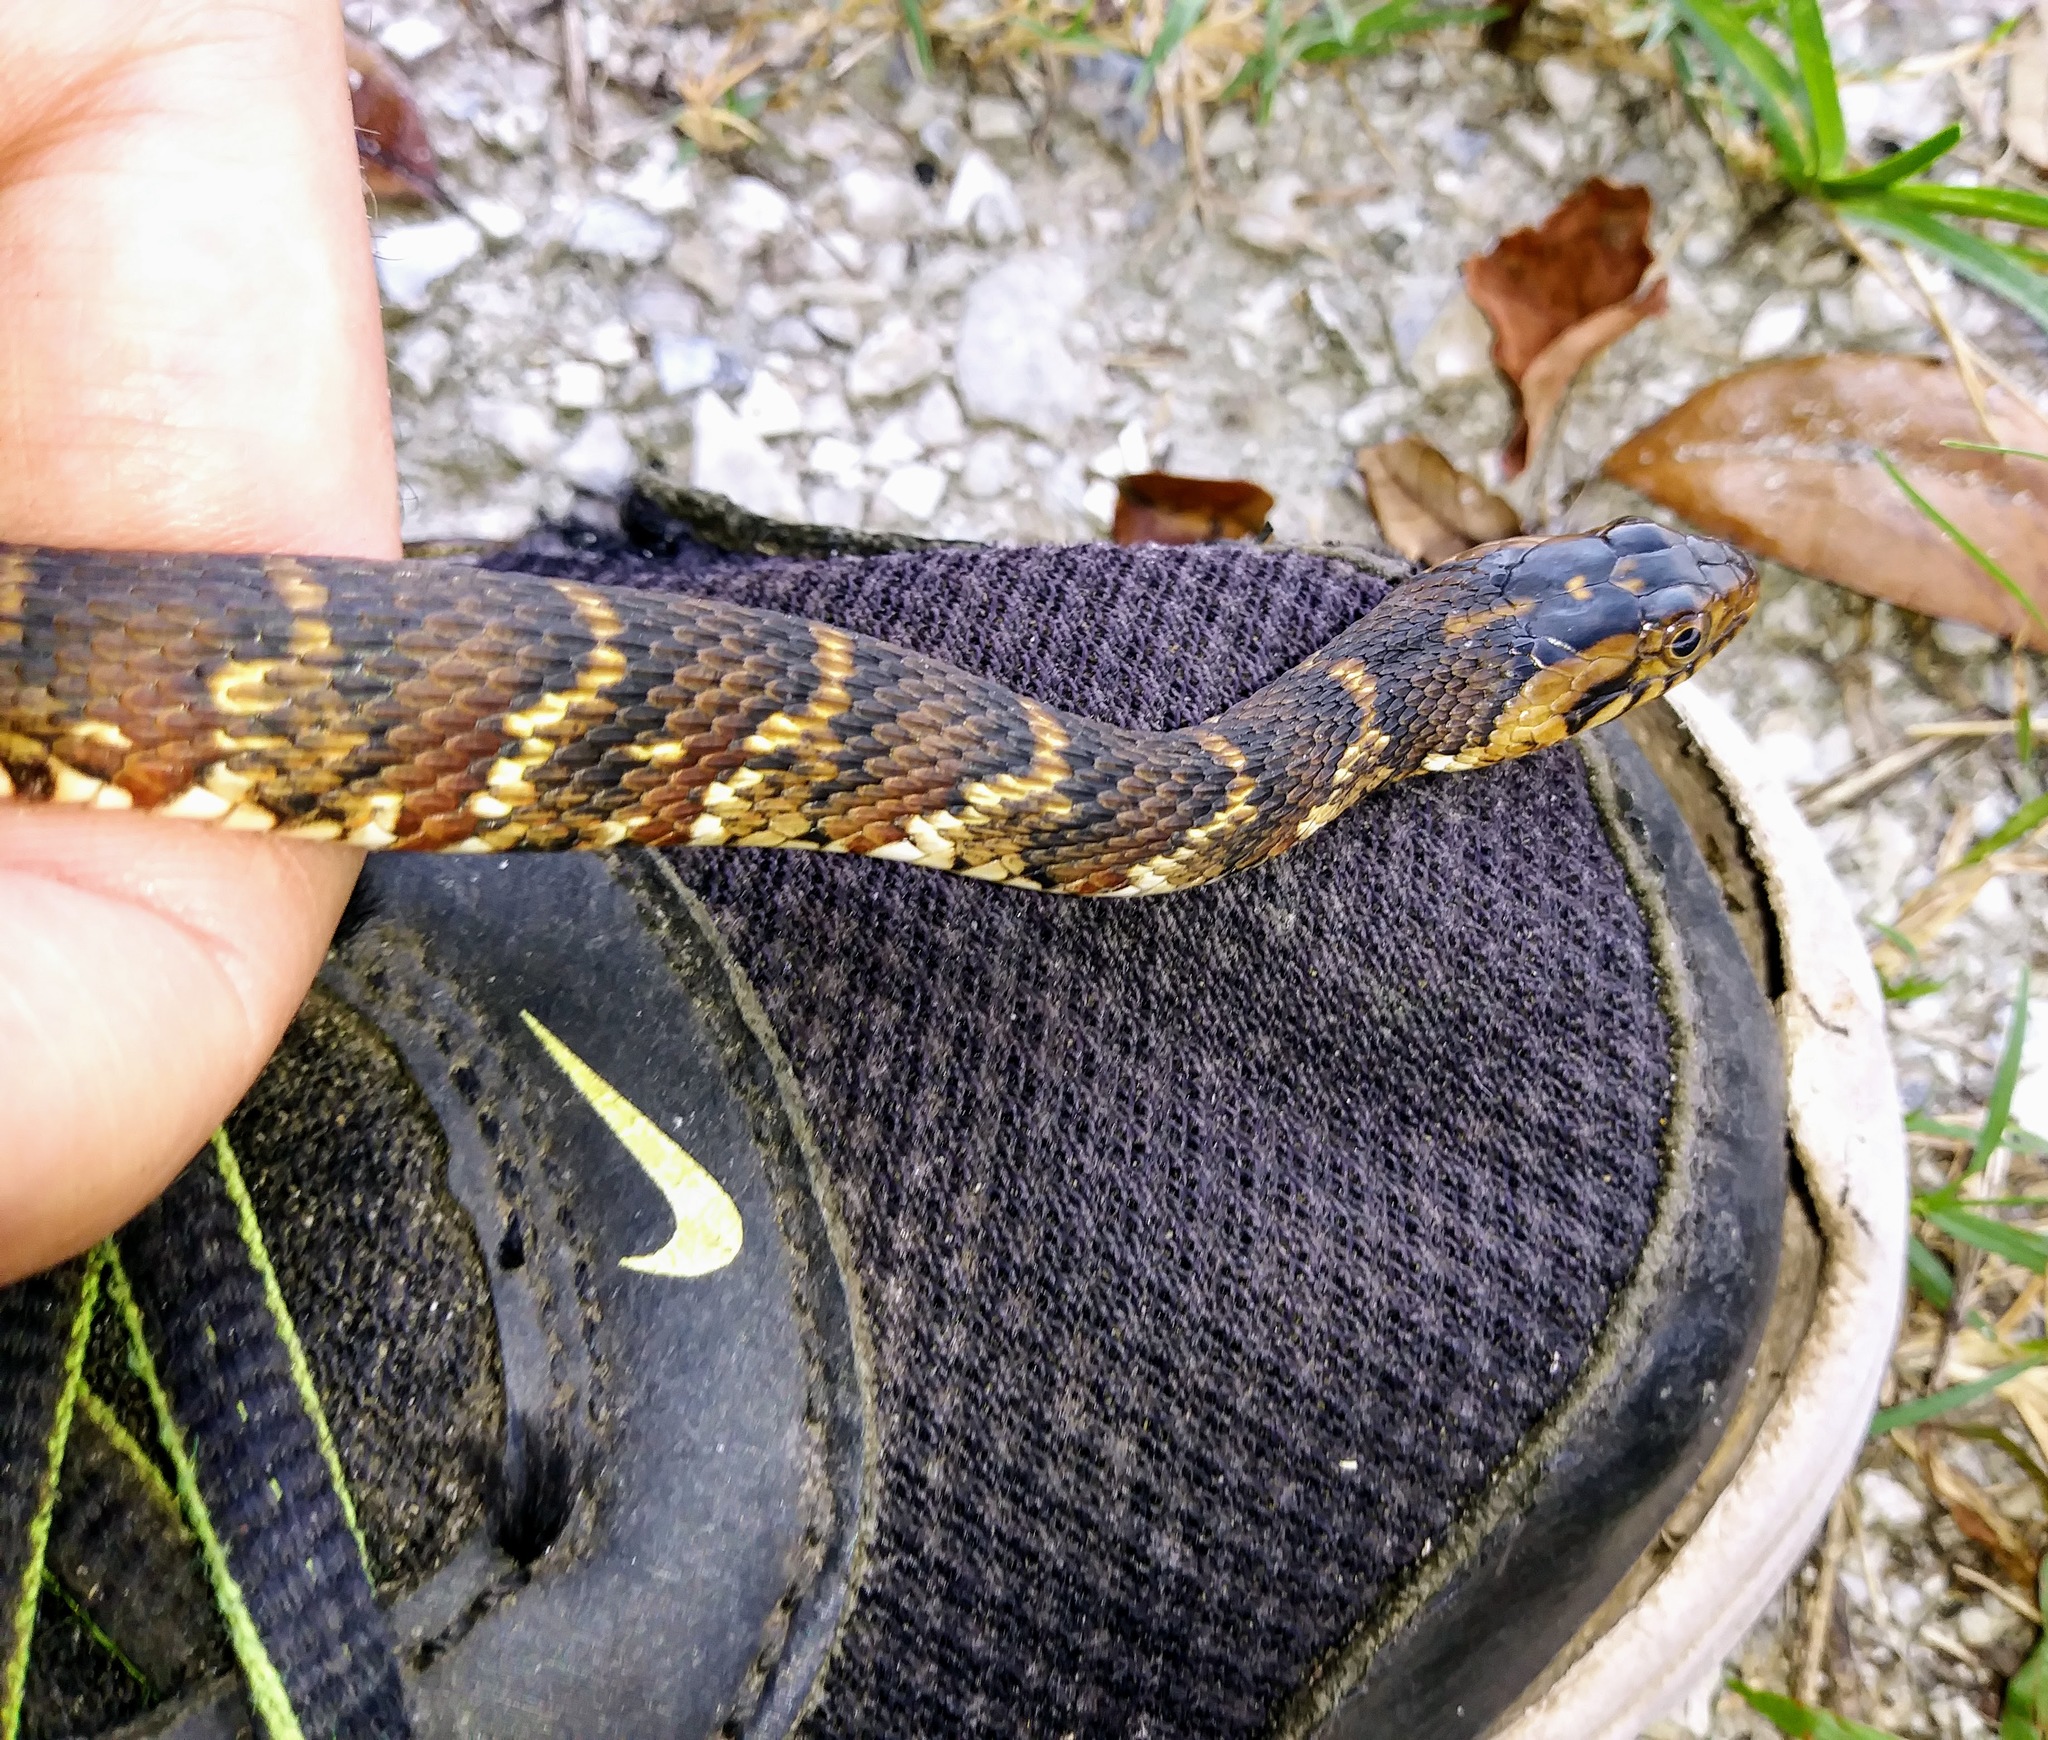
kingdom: Animalia
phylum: Chordata
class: Squamata
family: Colubridae
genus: Nerodia
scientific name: Nerodia fasciata
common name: Southern water snake
